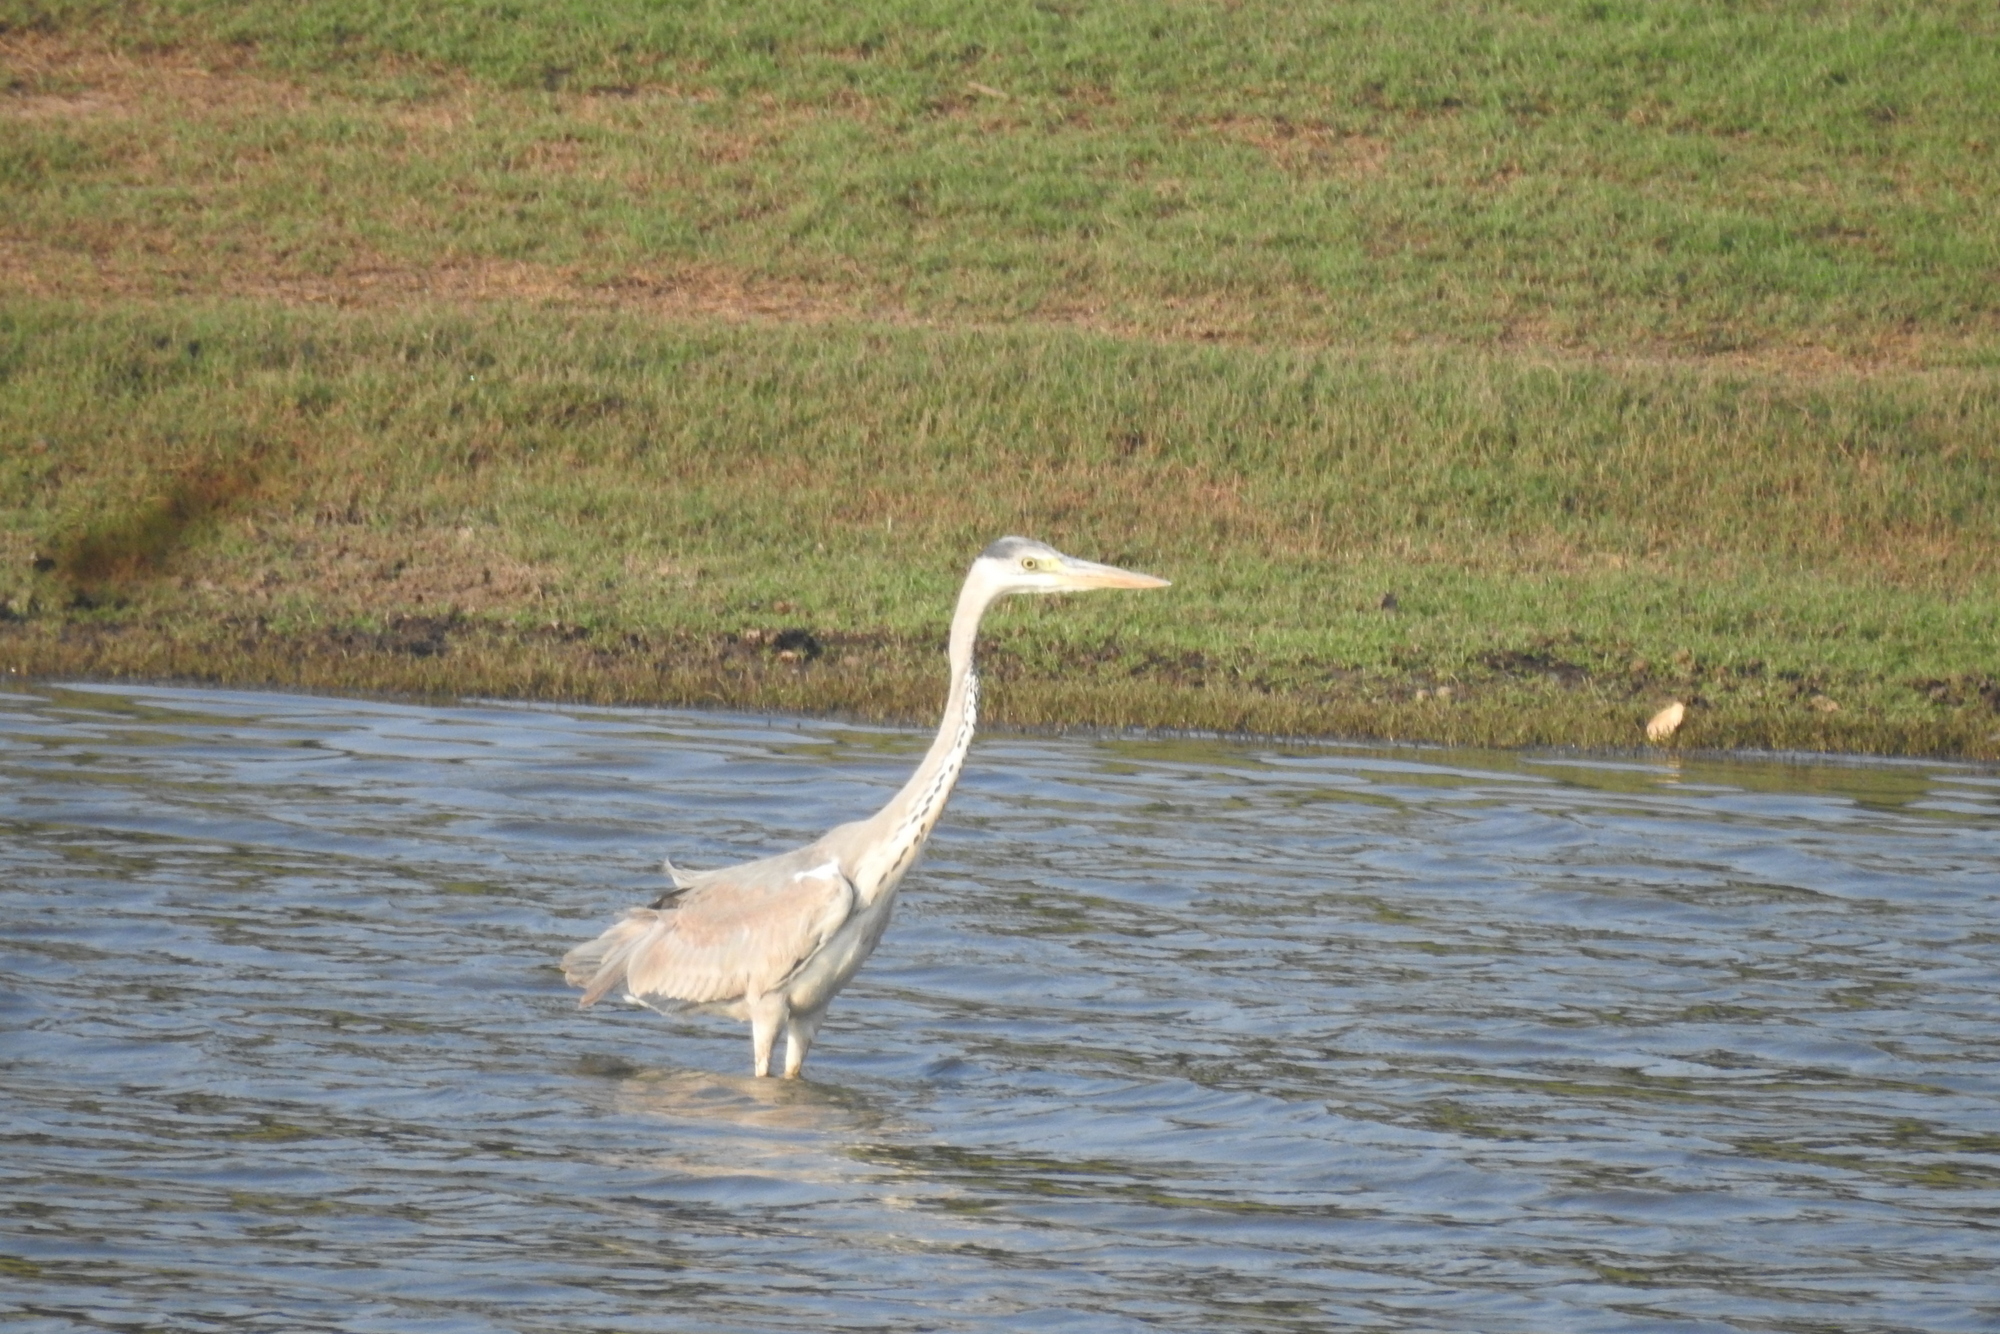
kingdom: Animalia
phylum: Chordata
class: Aves
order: Pelecaniformes
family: Ardeidae
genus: Ardea
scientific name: Ardea cinerea
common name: Grey heron
